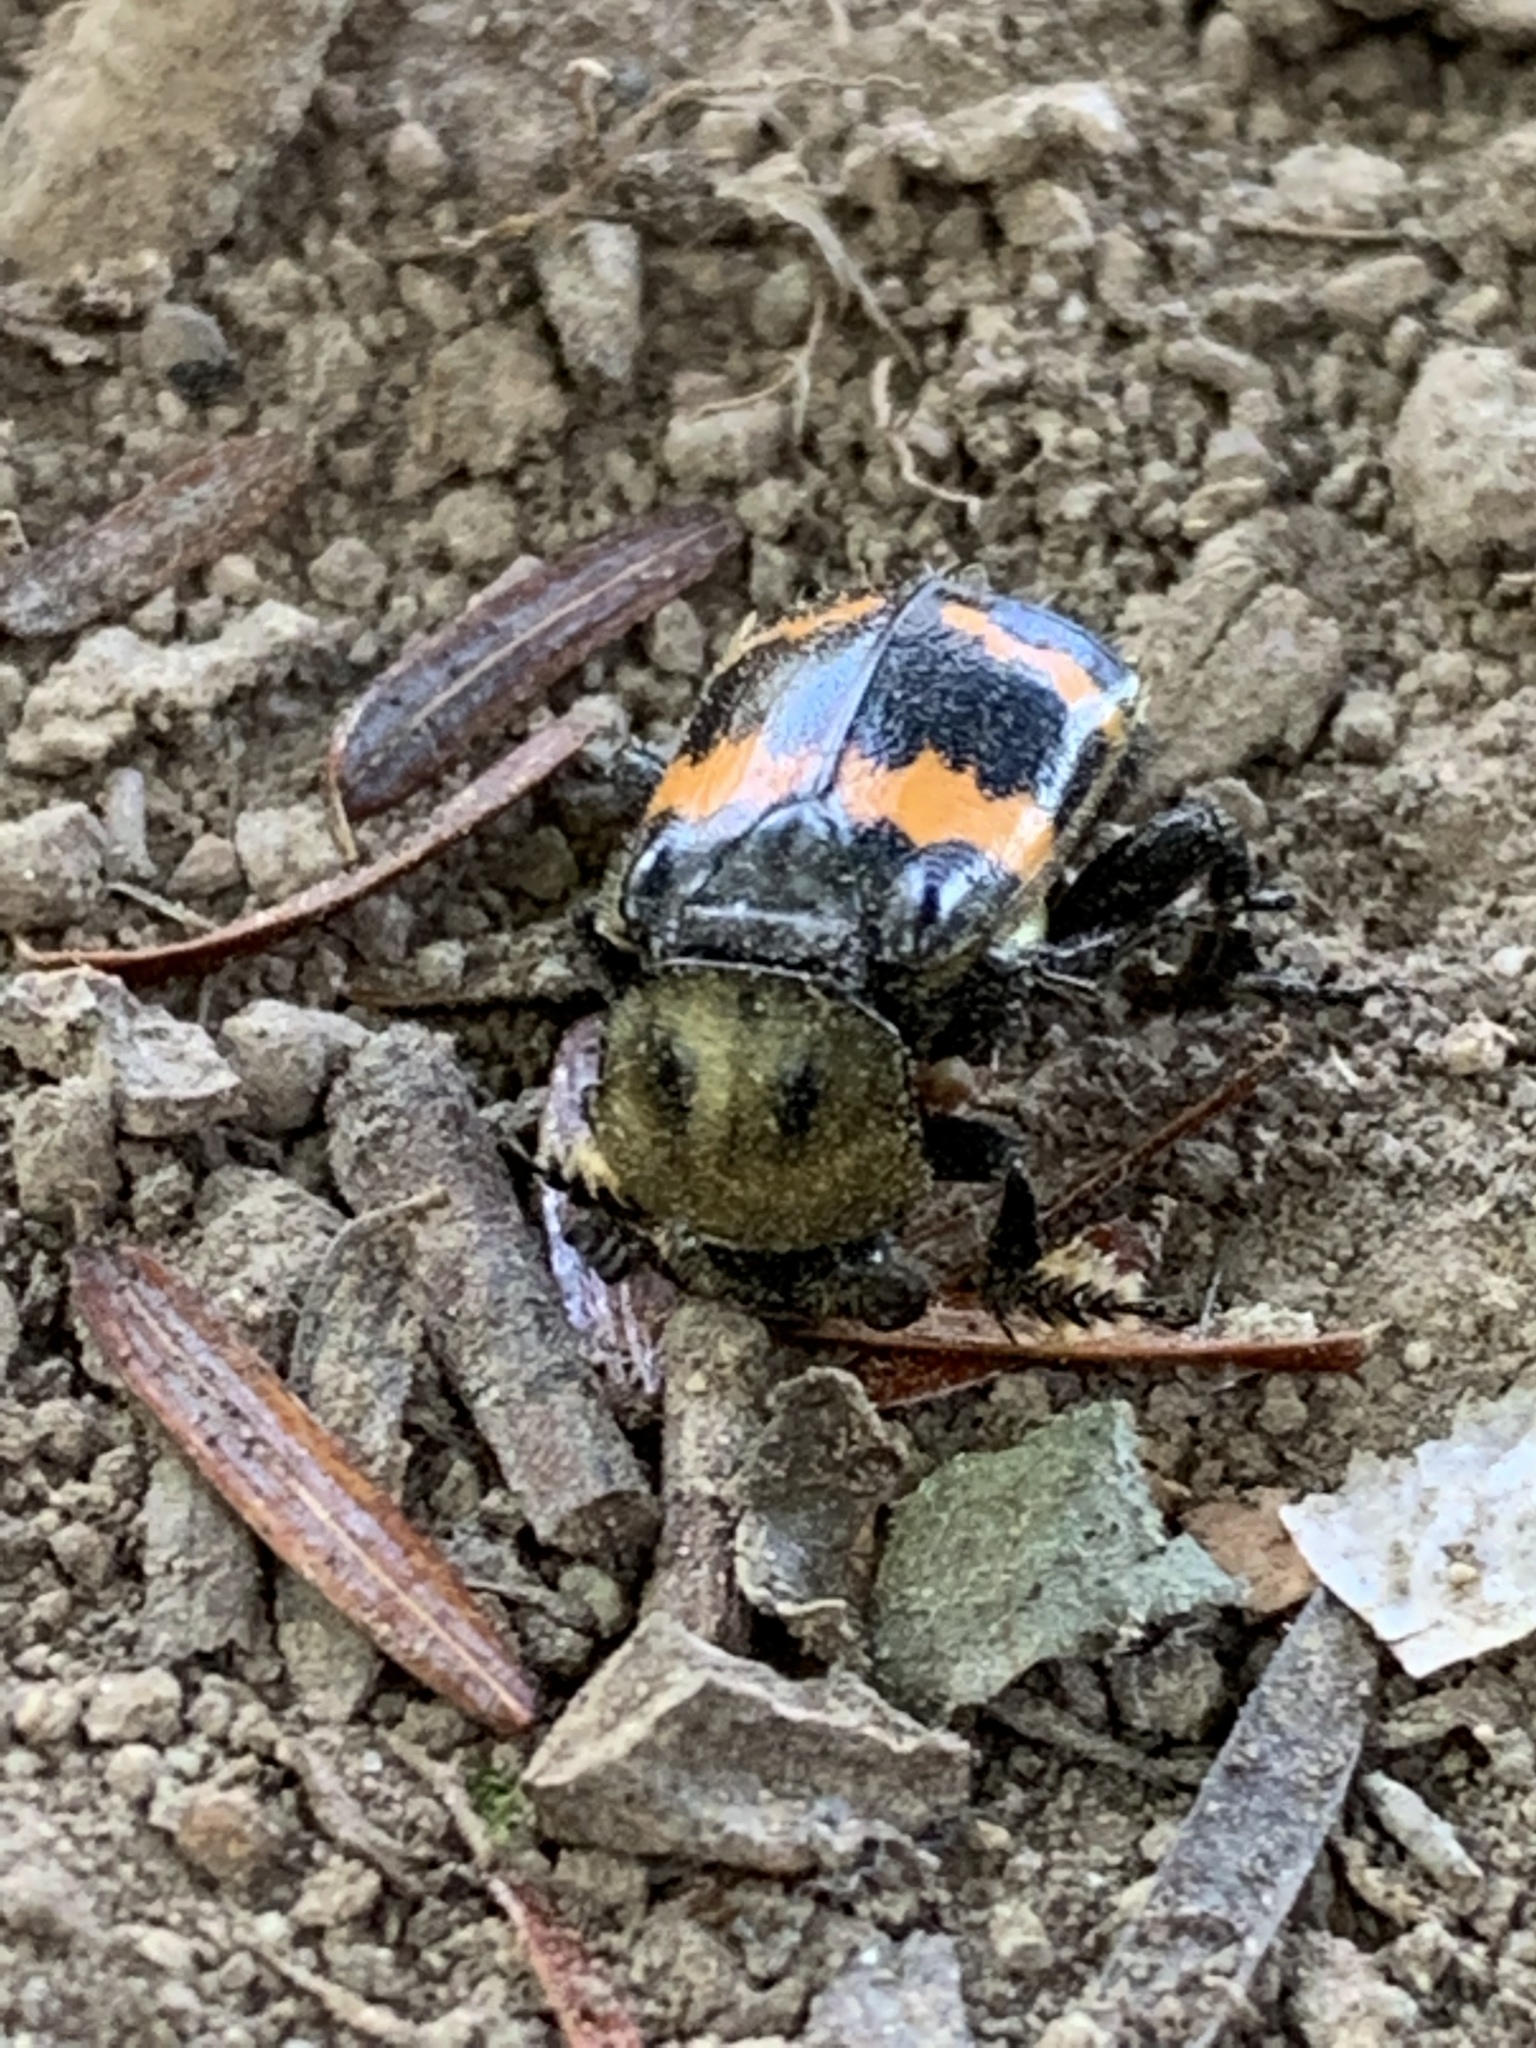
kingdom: Animalia
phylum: Arthropoda
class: Insecta
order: Coleoptera
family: Staphylinidae
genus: Nicrophorus
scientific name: Nicrophorus tomentosus
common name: Tomentose burying beetle
